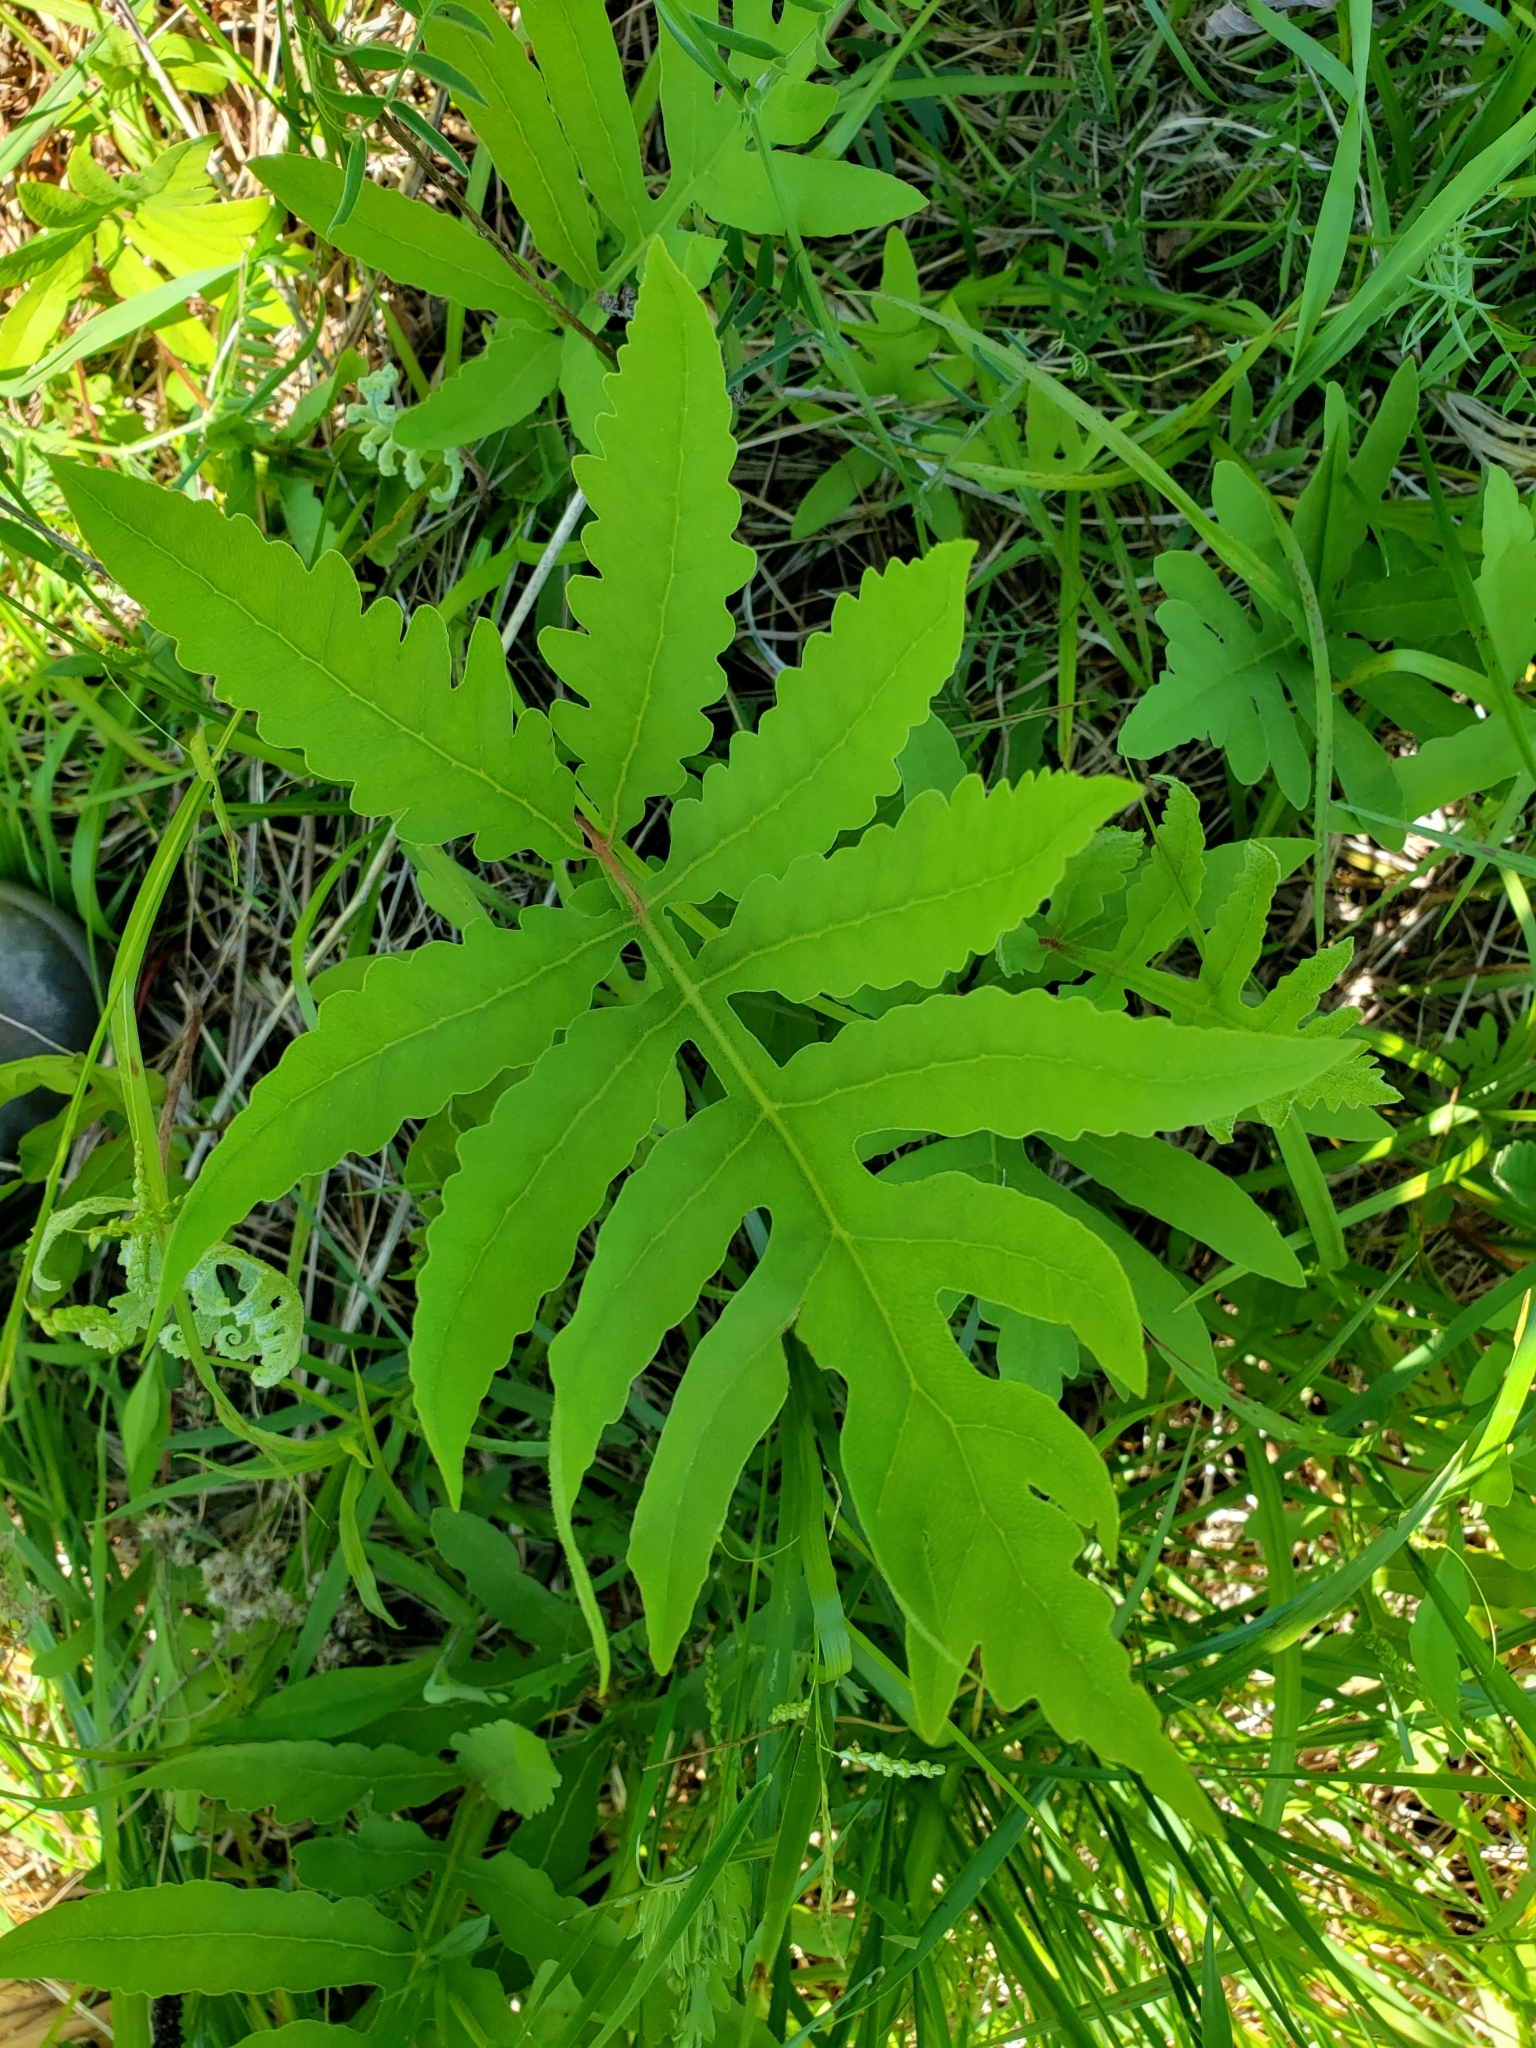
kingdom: Plantae
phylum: Tracheophyta
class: Polypodiopsida
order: Polypodiales
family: Onocleaceae
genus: Onoclea
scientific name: Onoclea sensibilis
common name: Sensitive fern
